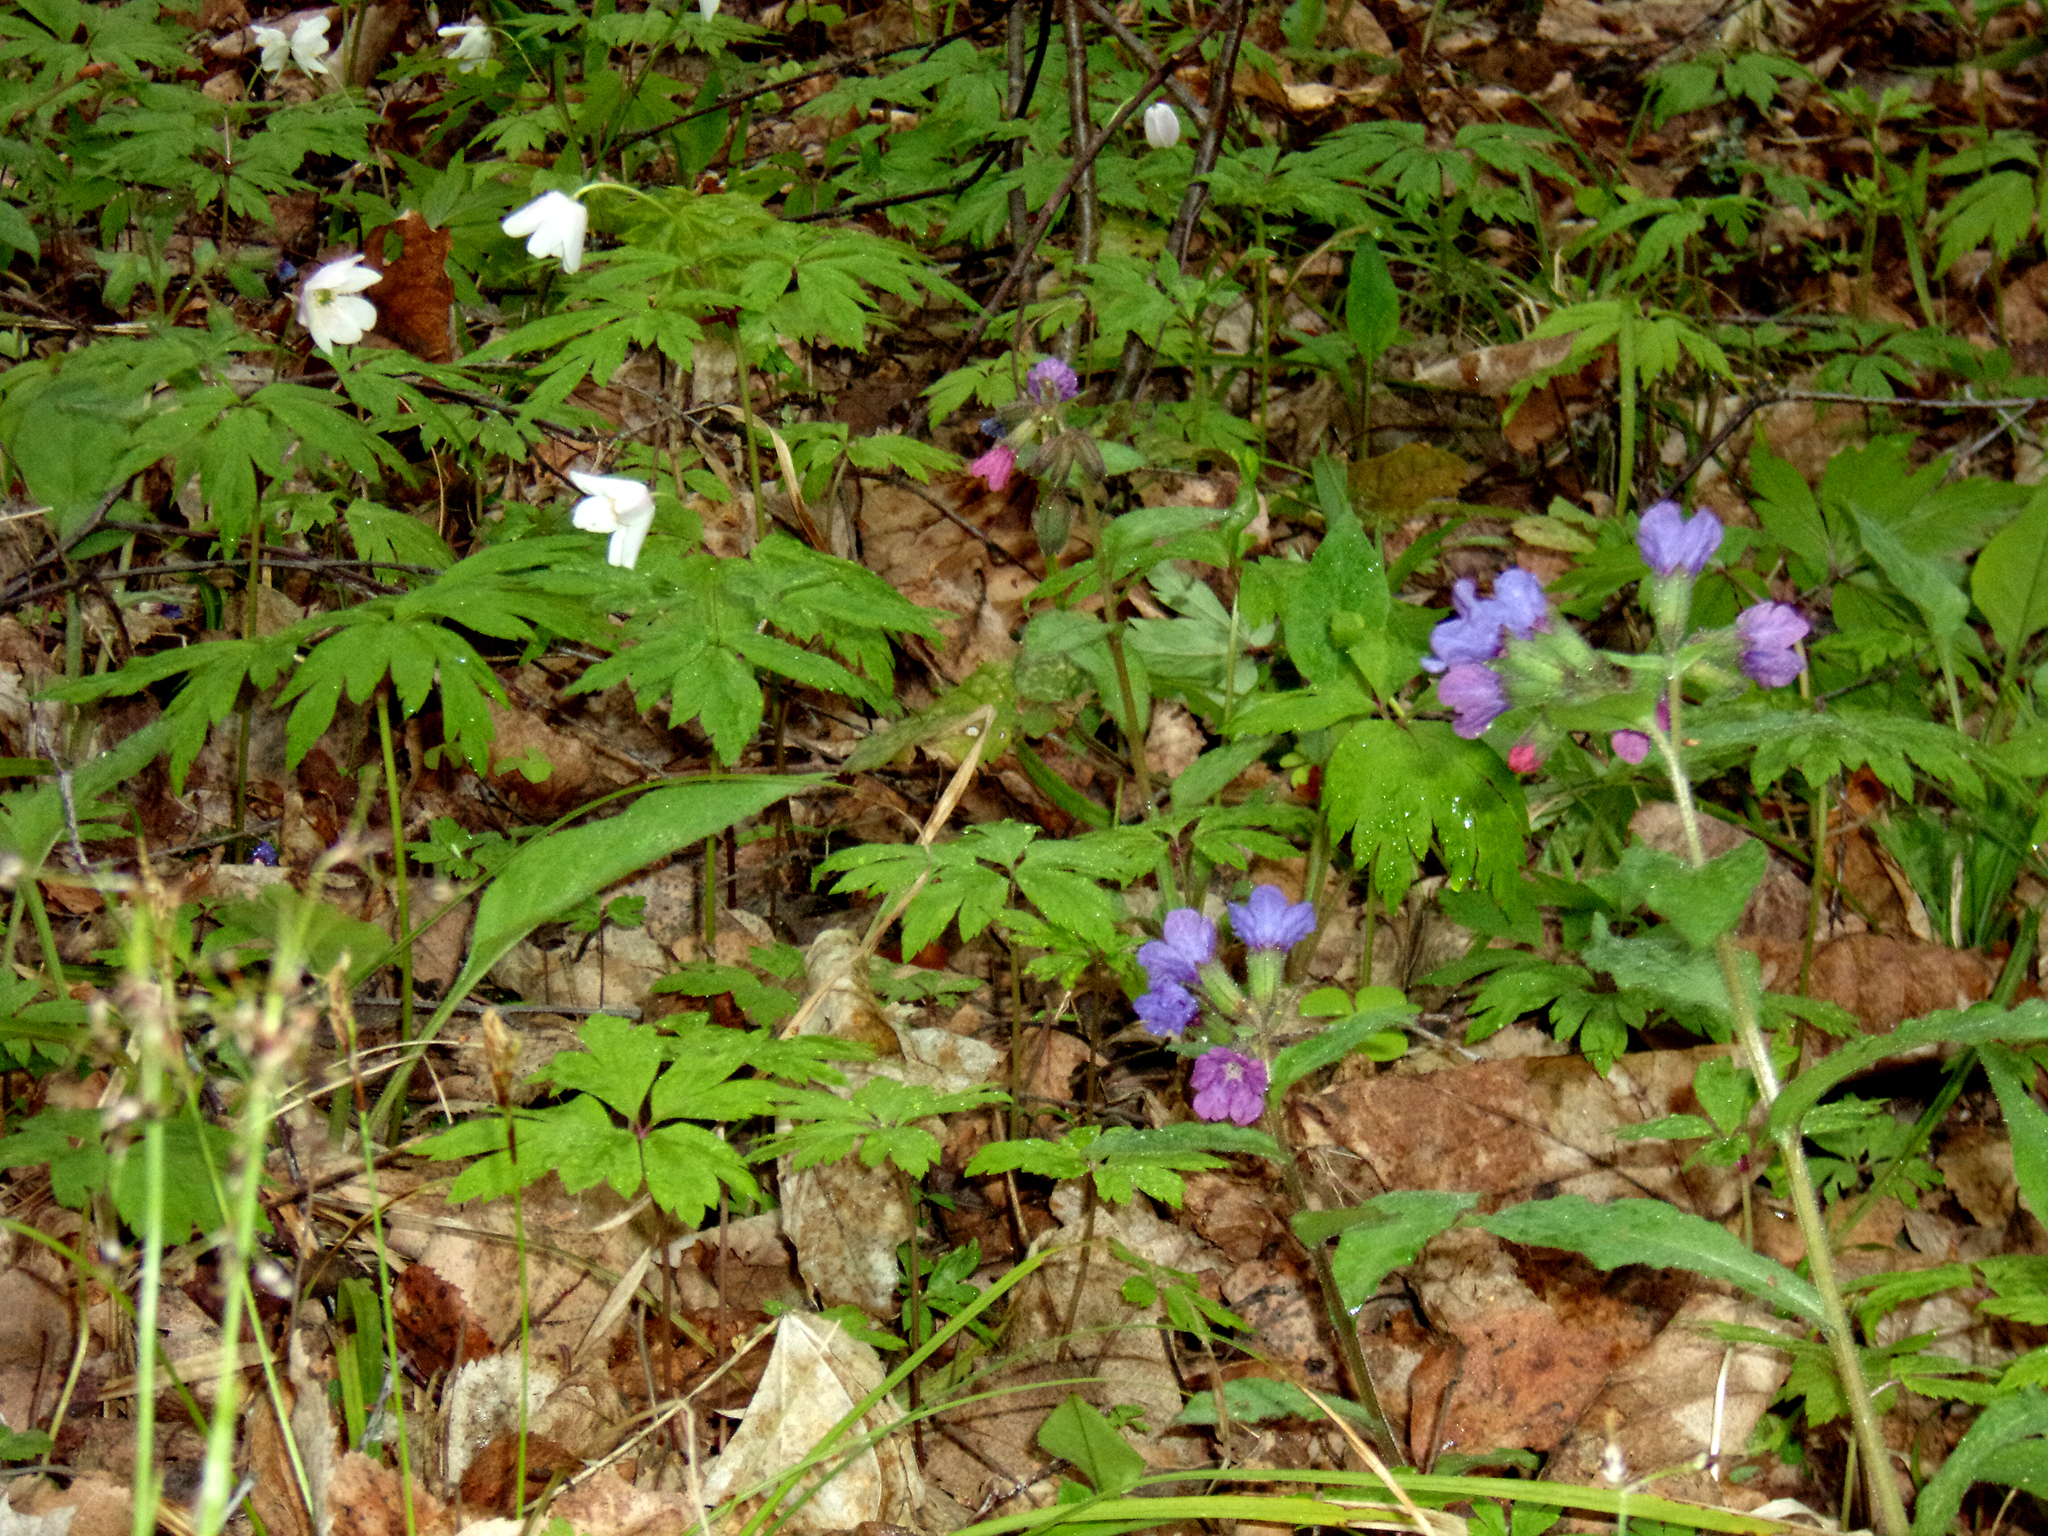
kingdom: Plantae
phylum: Tracheophyta
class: Magnoliopsida
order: Boraginales
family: Boraginaceae
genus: Pulmonaria
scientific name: Pulmonaria obscura
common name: Suffolk lungwort
